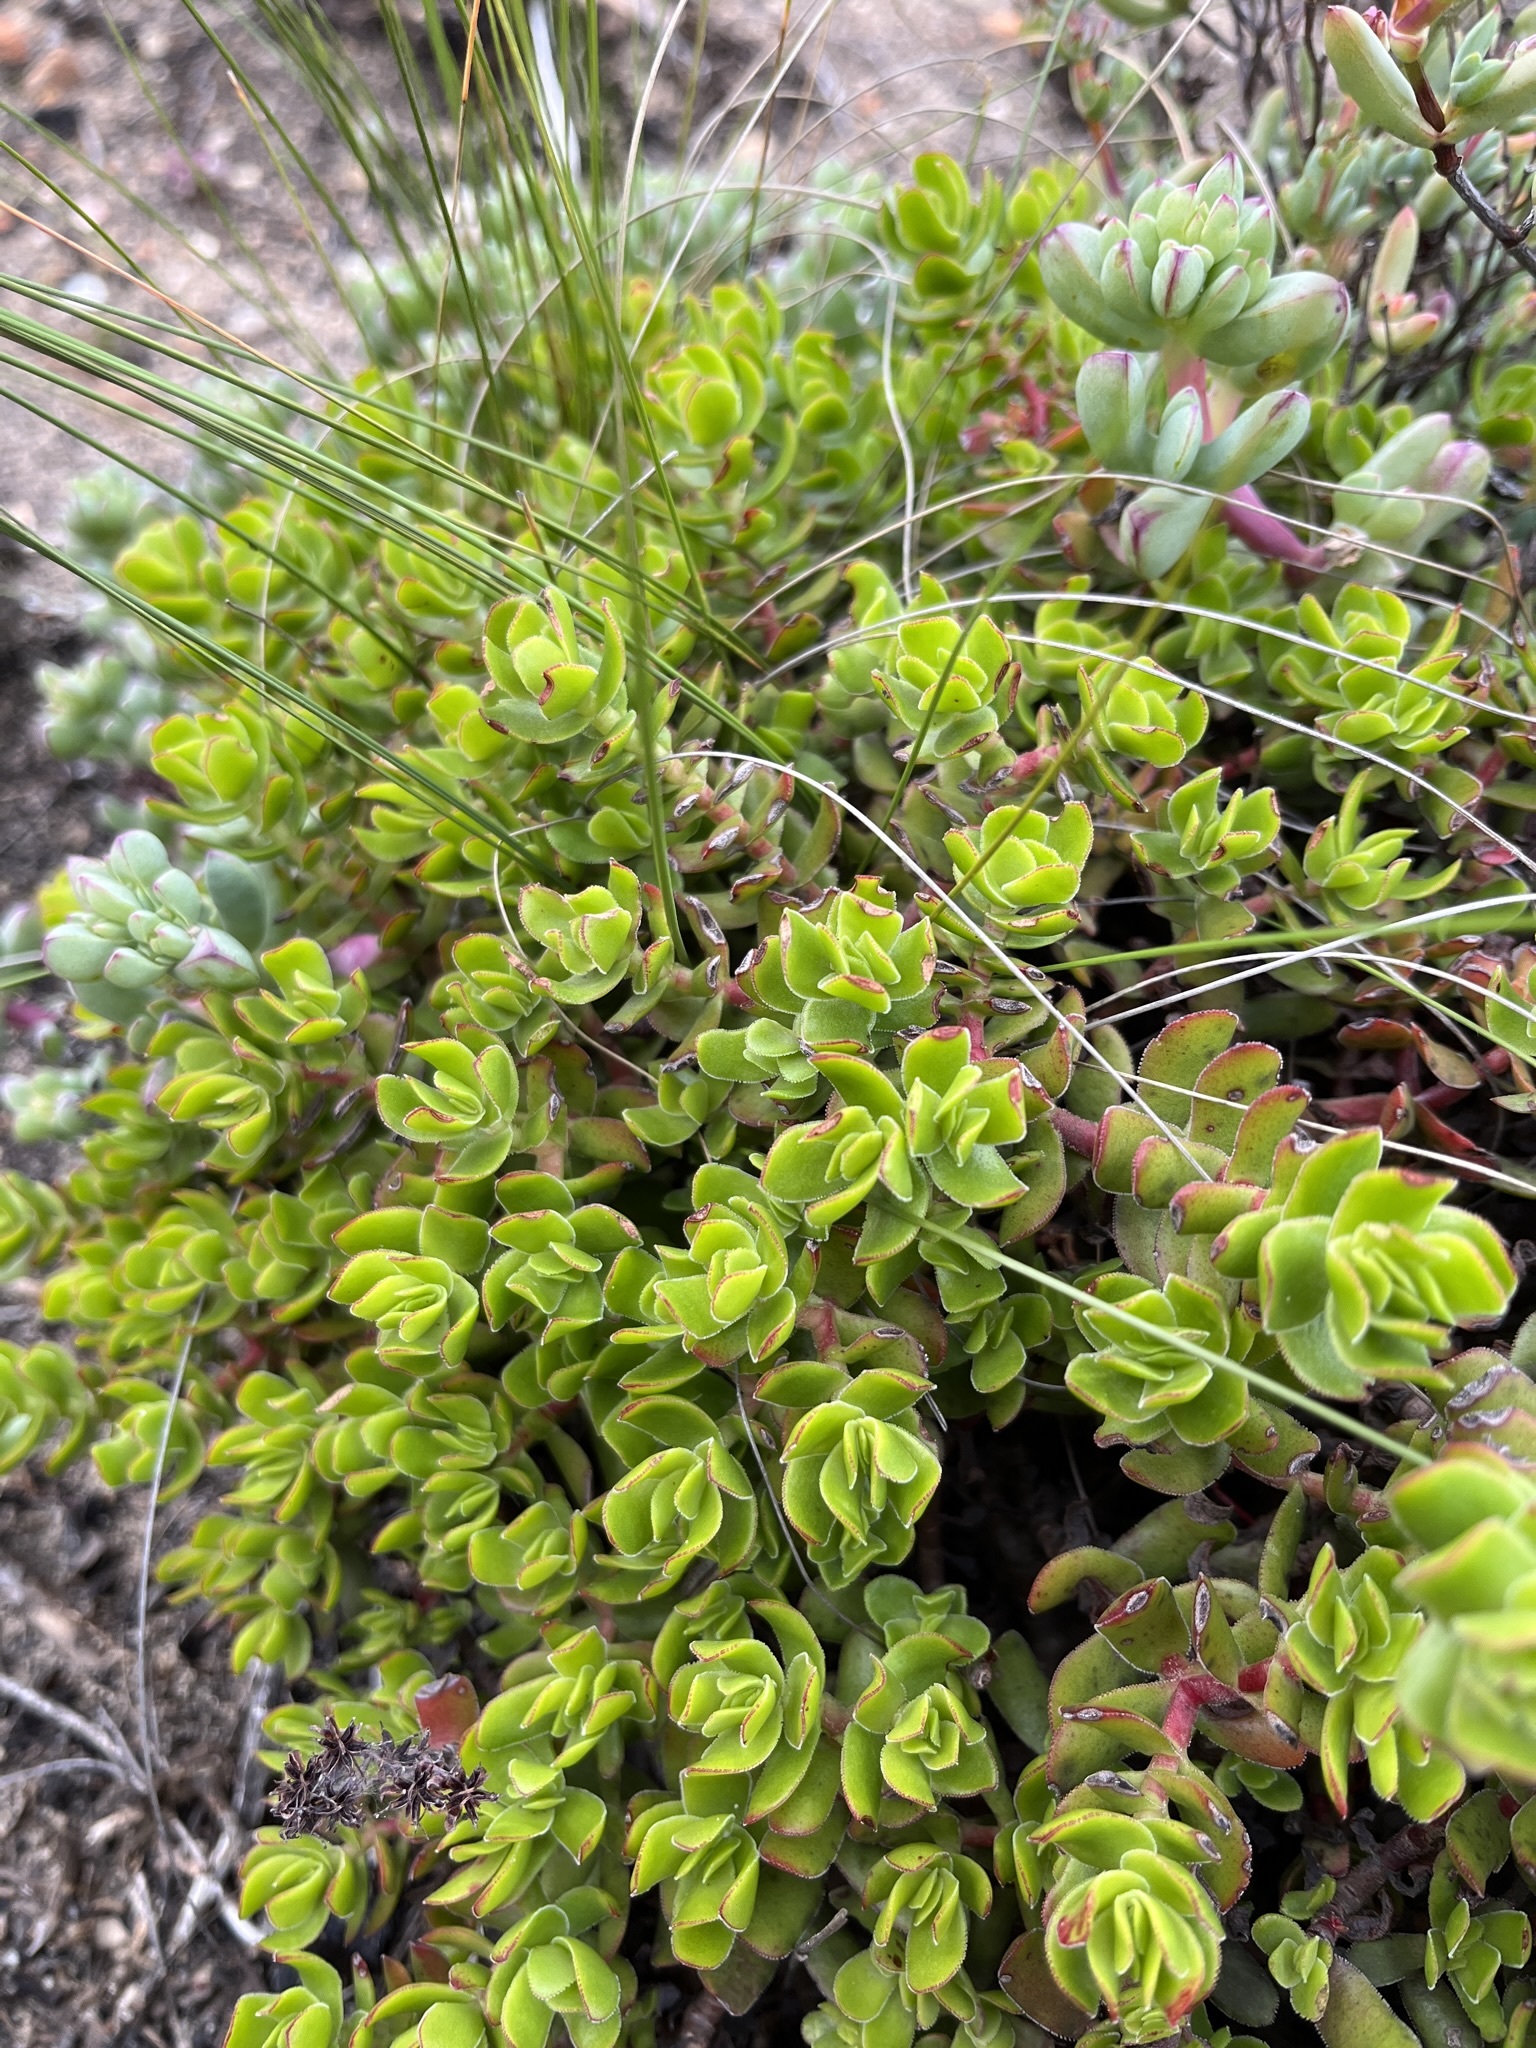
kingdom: Plantae
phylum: Tracheophyta
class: Magnoliopsida
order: Saxifragales
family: Crassulaceae
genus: Crassula
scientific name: Crassula undulata
